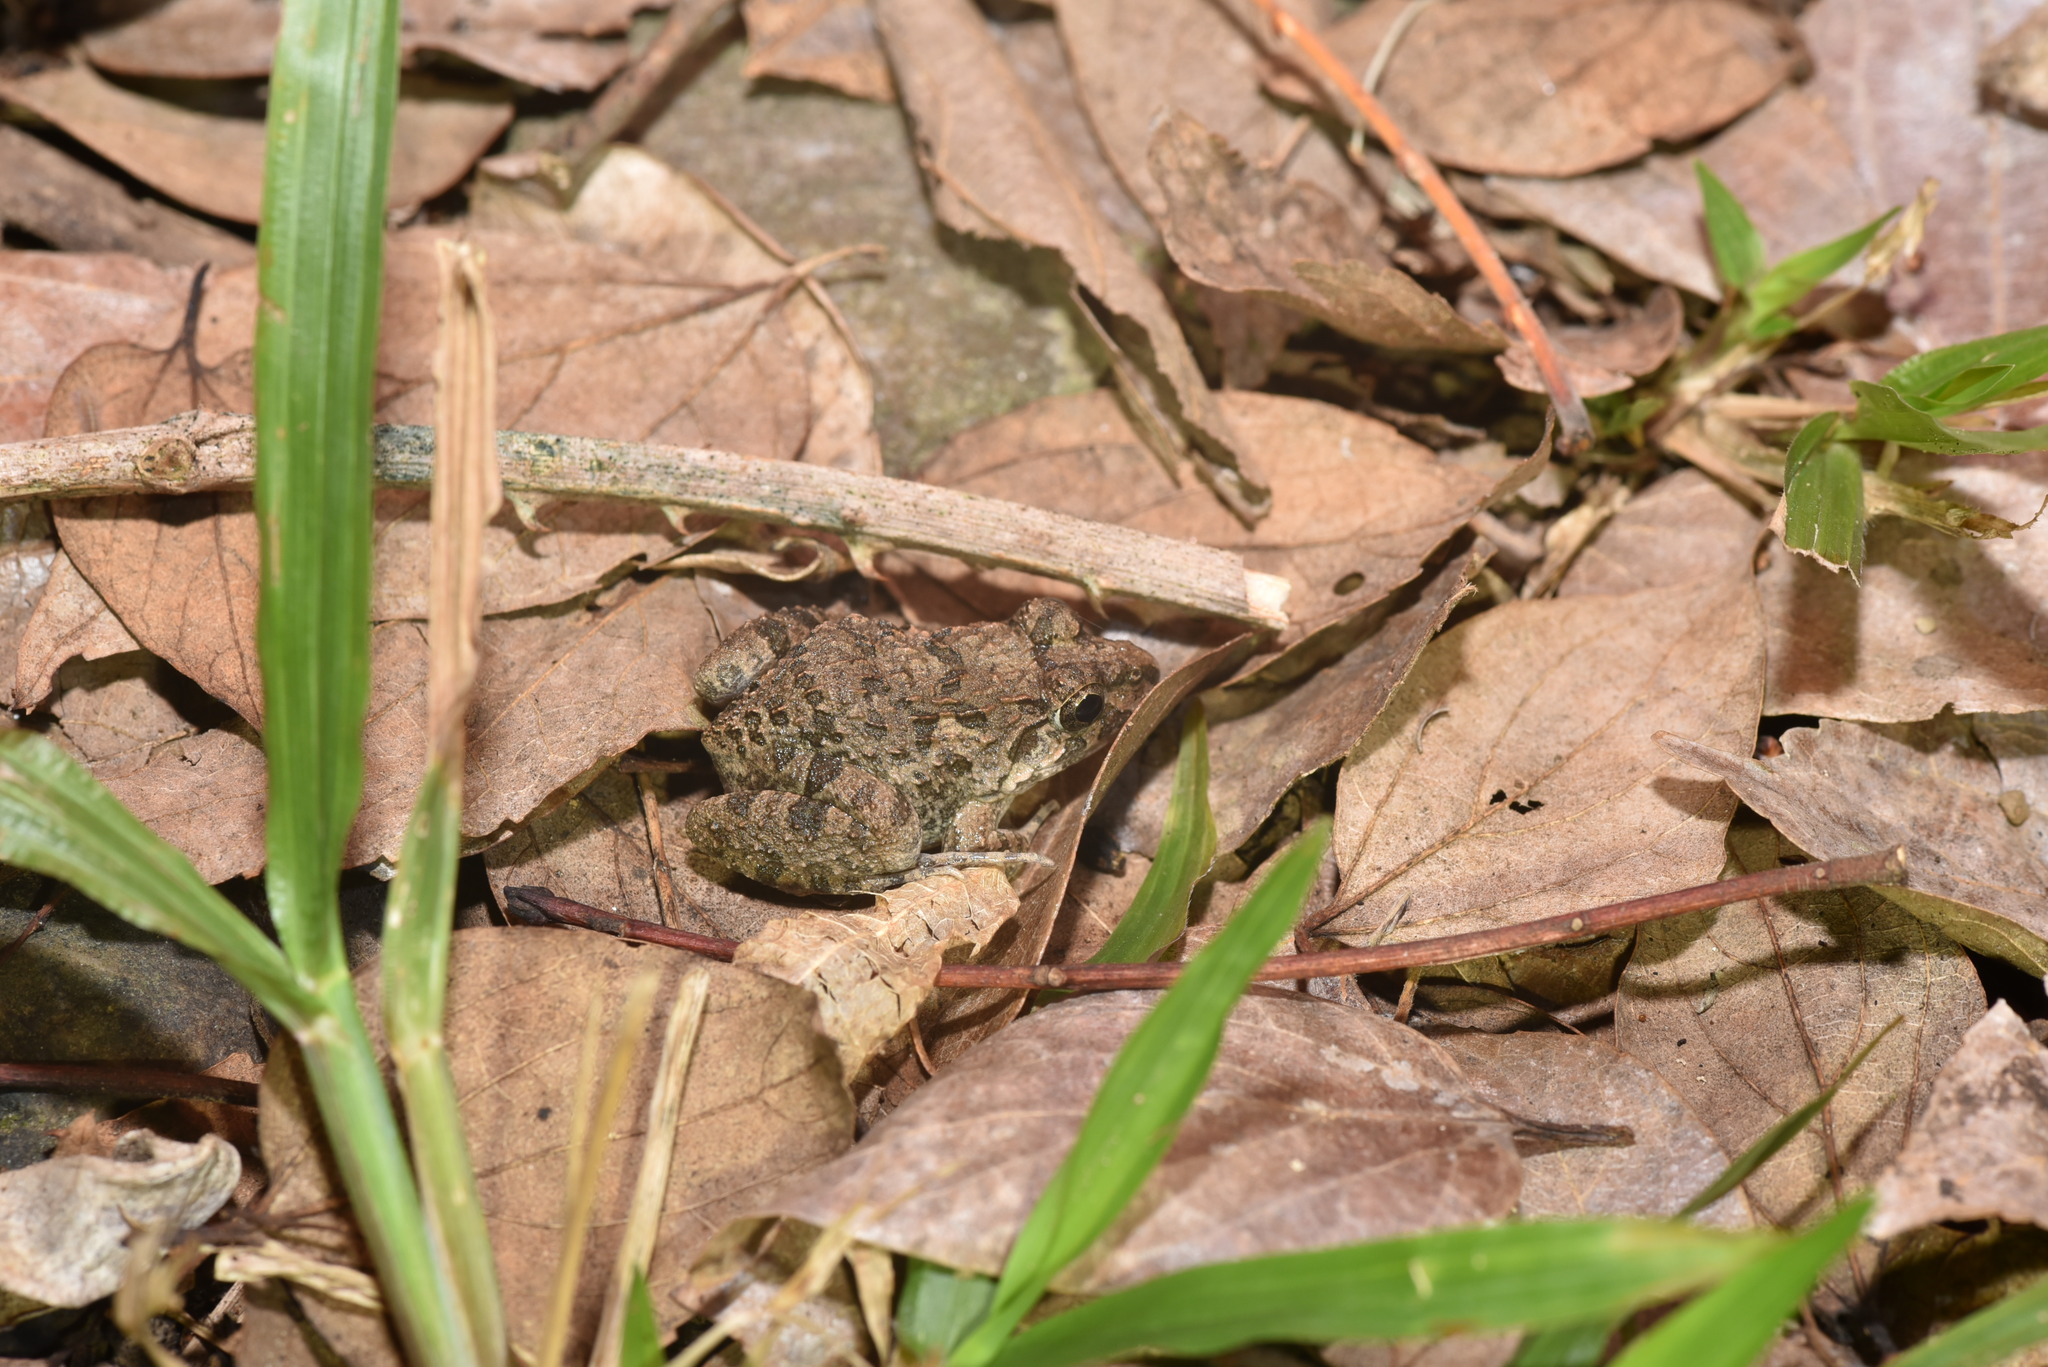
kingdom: Animalia
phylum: Chordata
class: Amphibia
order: Anura
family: Dicroglossidae
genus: Fejervarya
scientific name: Fejervarya limnocharis
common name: Asian grass frog/common pond frog/field frog/grass frog/indian rice frog
